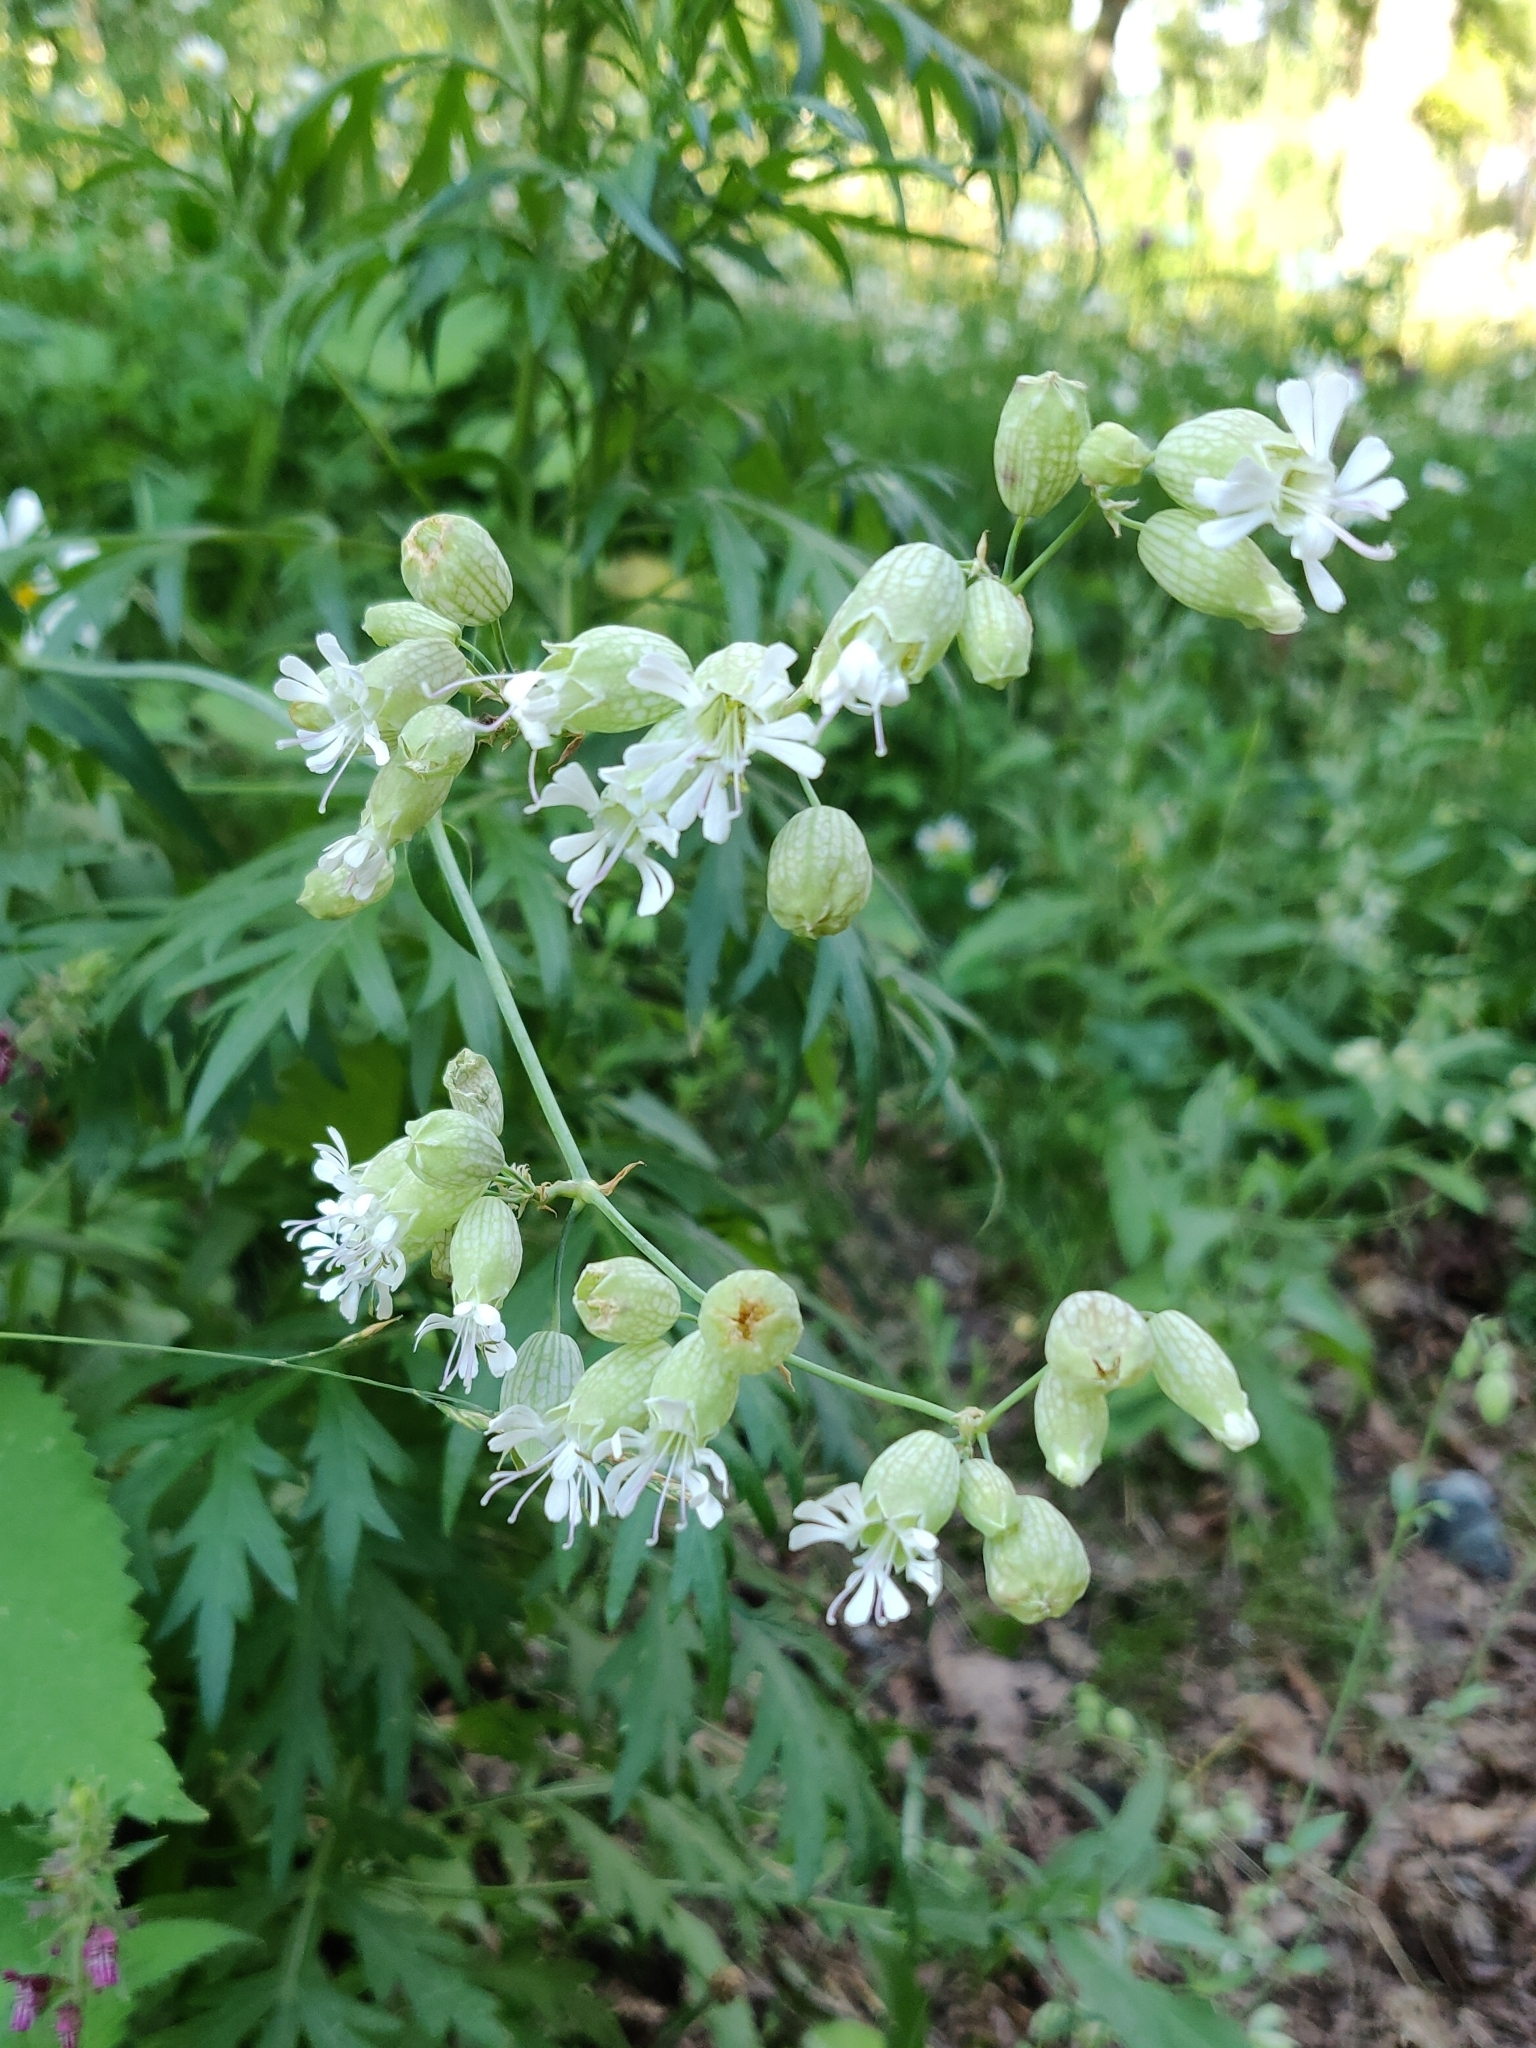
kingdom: Plantae
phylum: Tracheophyta
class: Magnoliopsida
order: Caryophyllales
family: Caryophyllaceae
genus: Silene
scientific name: Silene vulgaris
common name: Bladder campion
